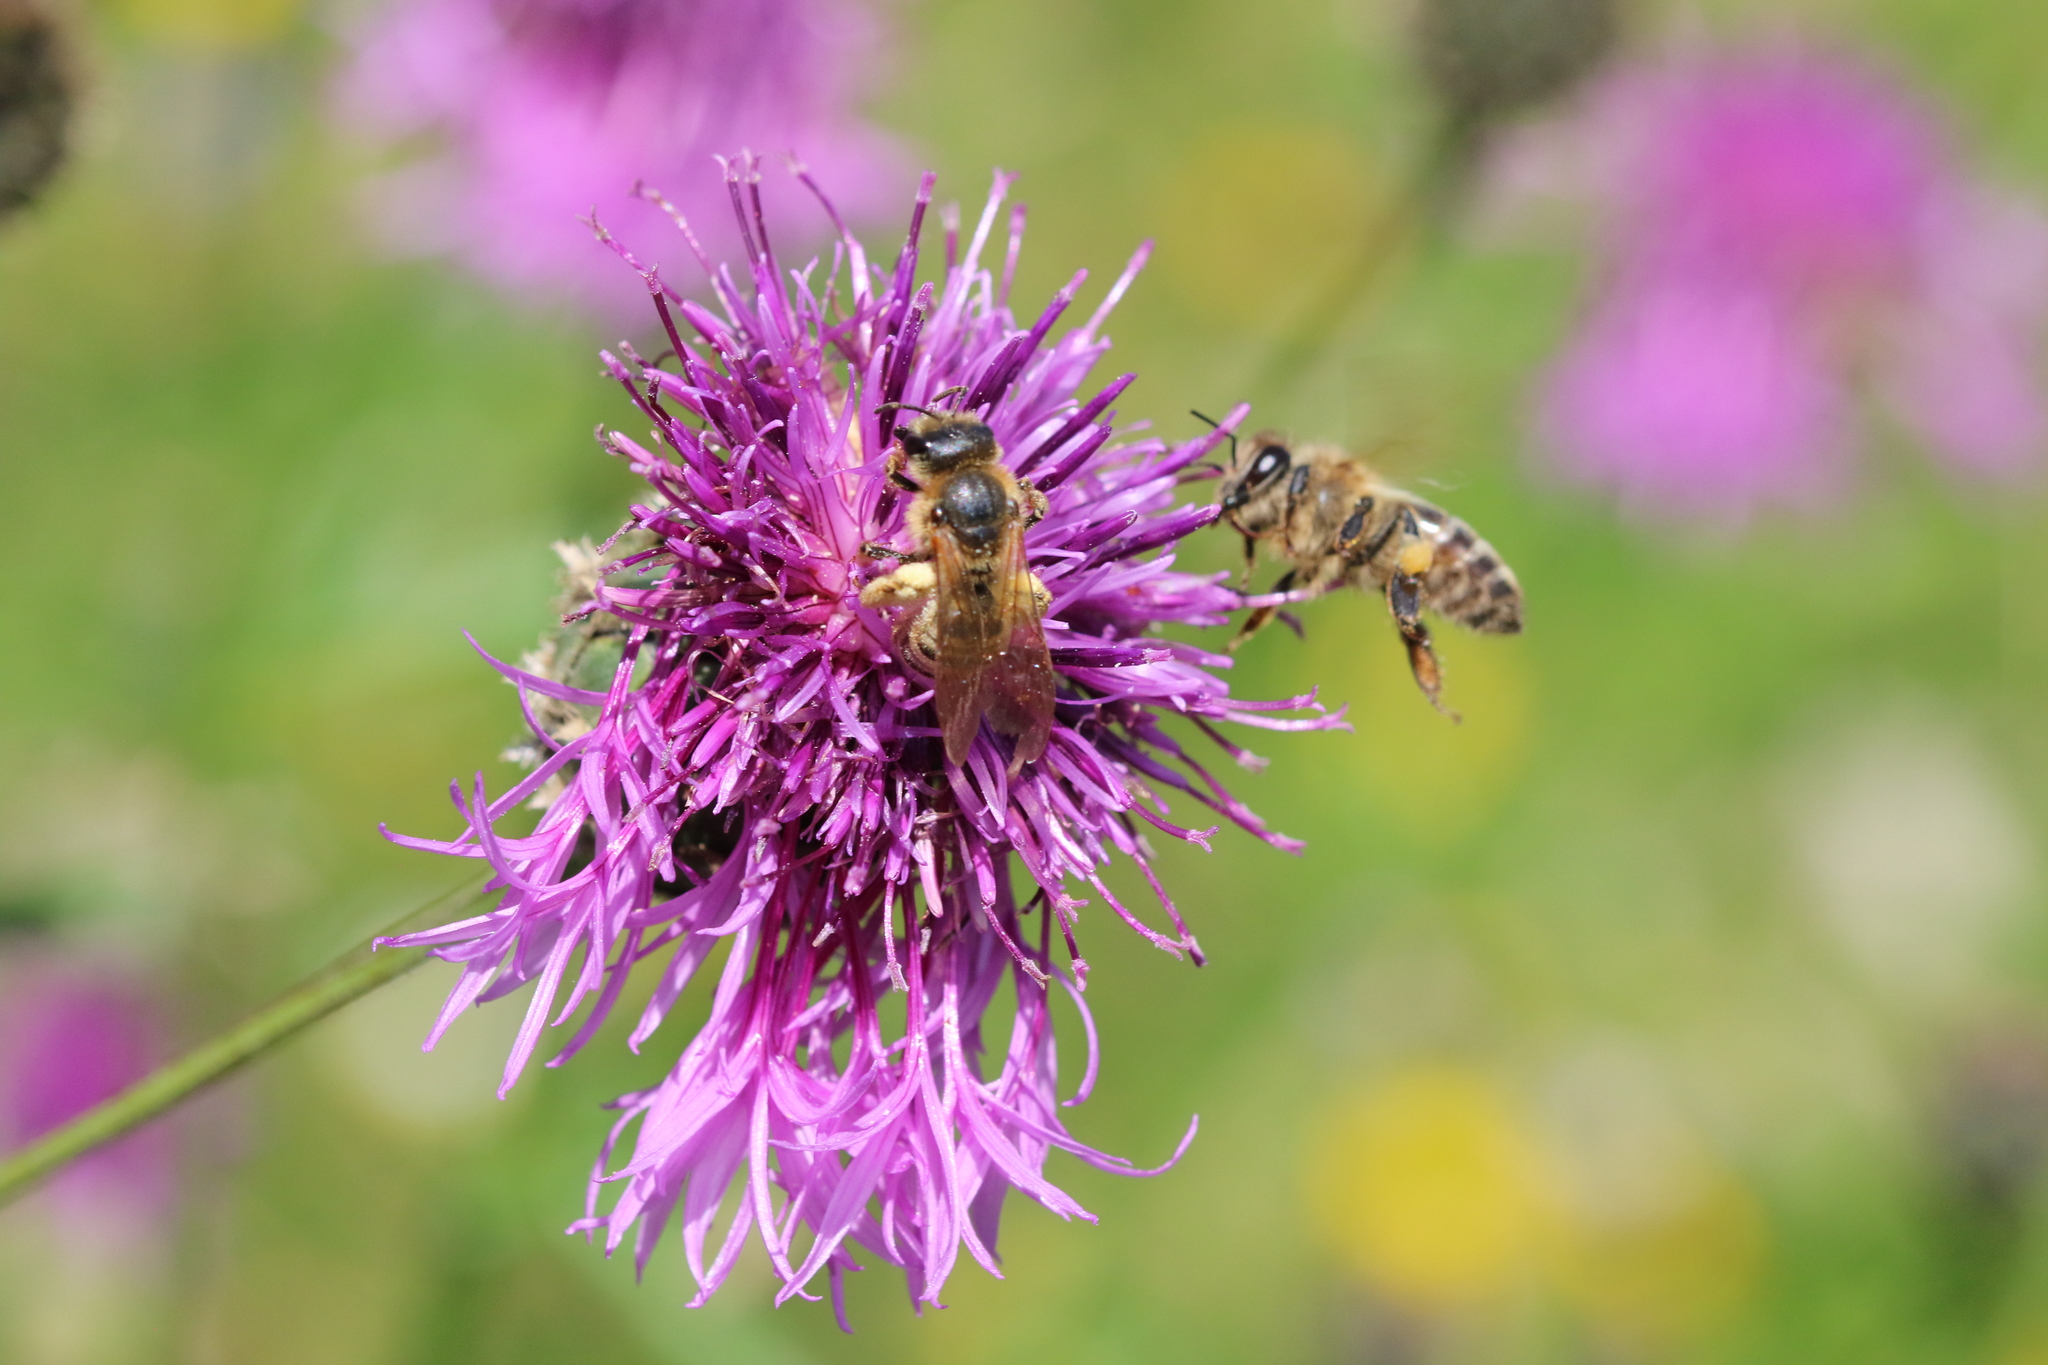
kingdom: Animalia
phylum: Arthropoda
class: Insecta
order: Hymenoptera
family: Apidae
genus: Apis
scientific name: Apis mellifera
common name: Honey bee
